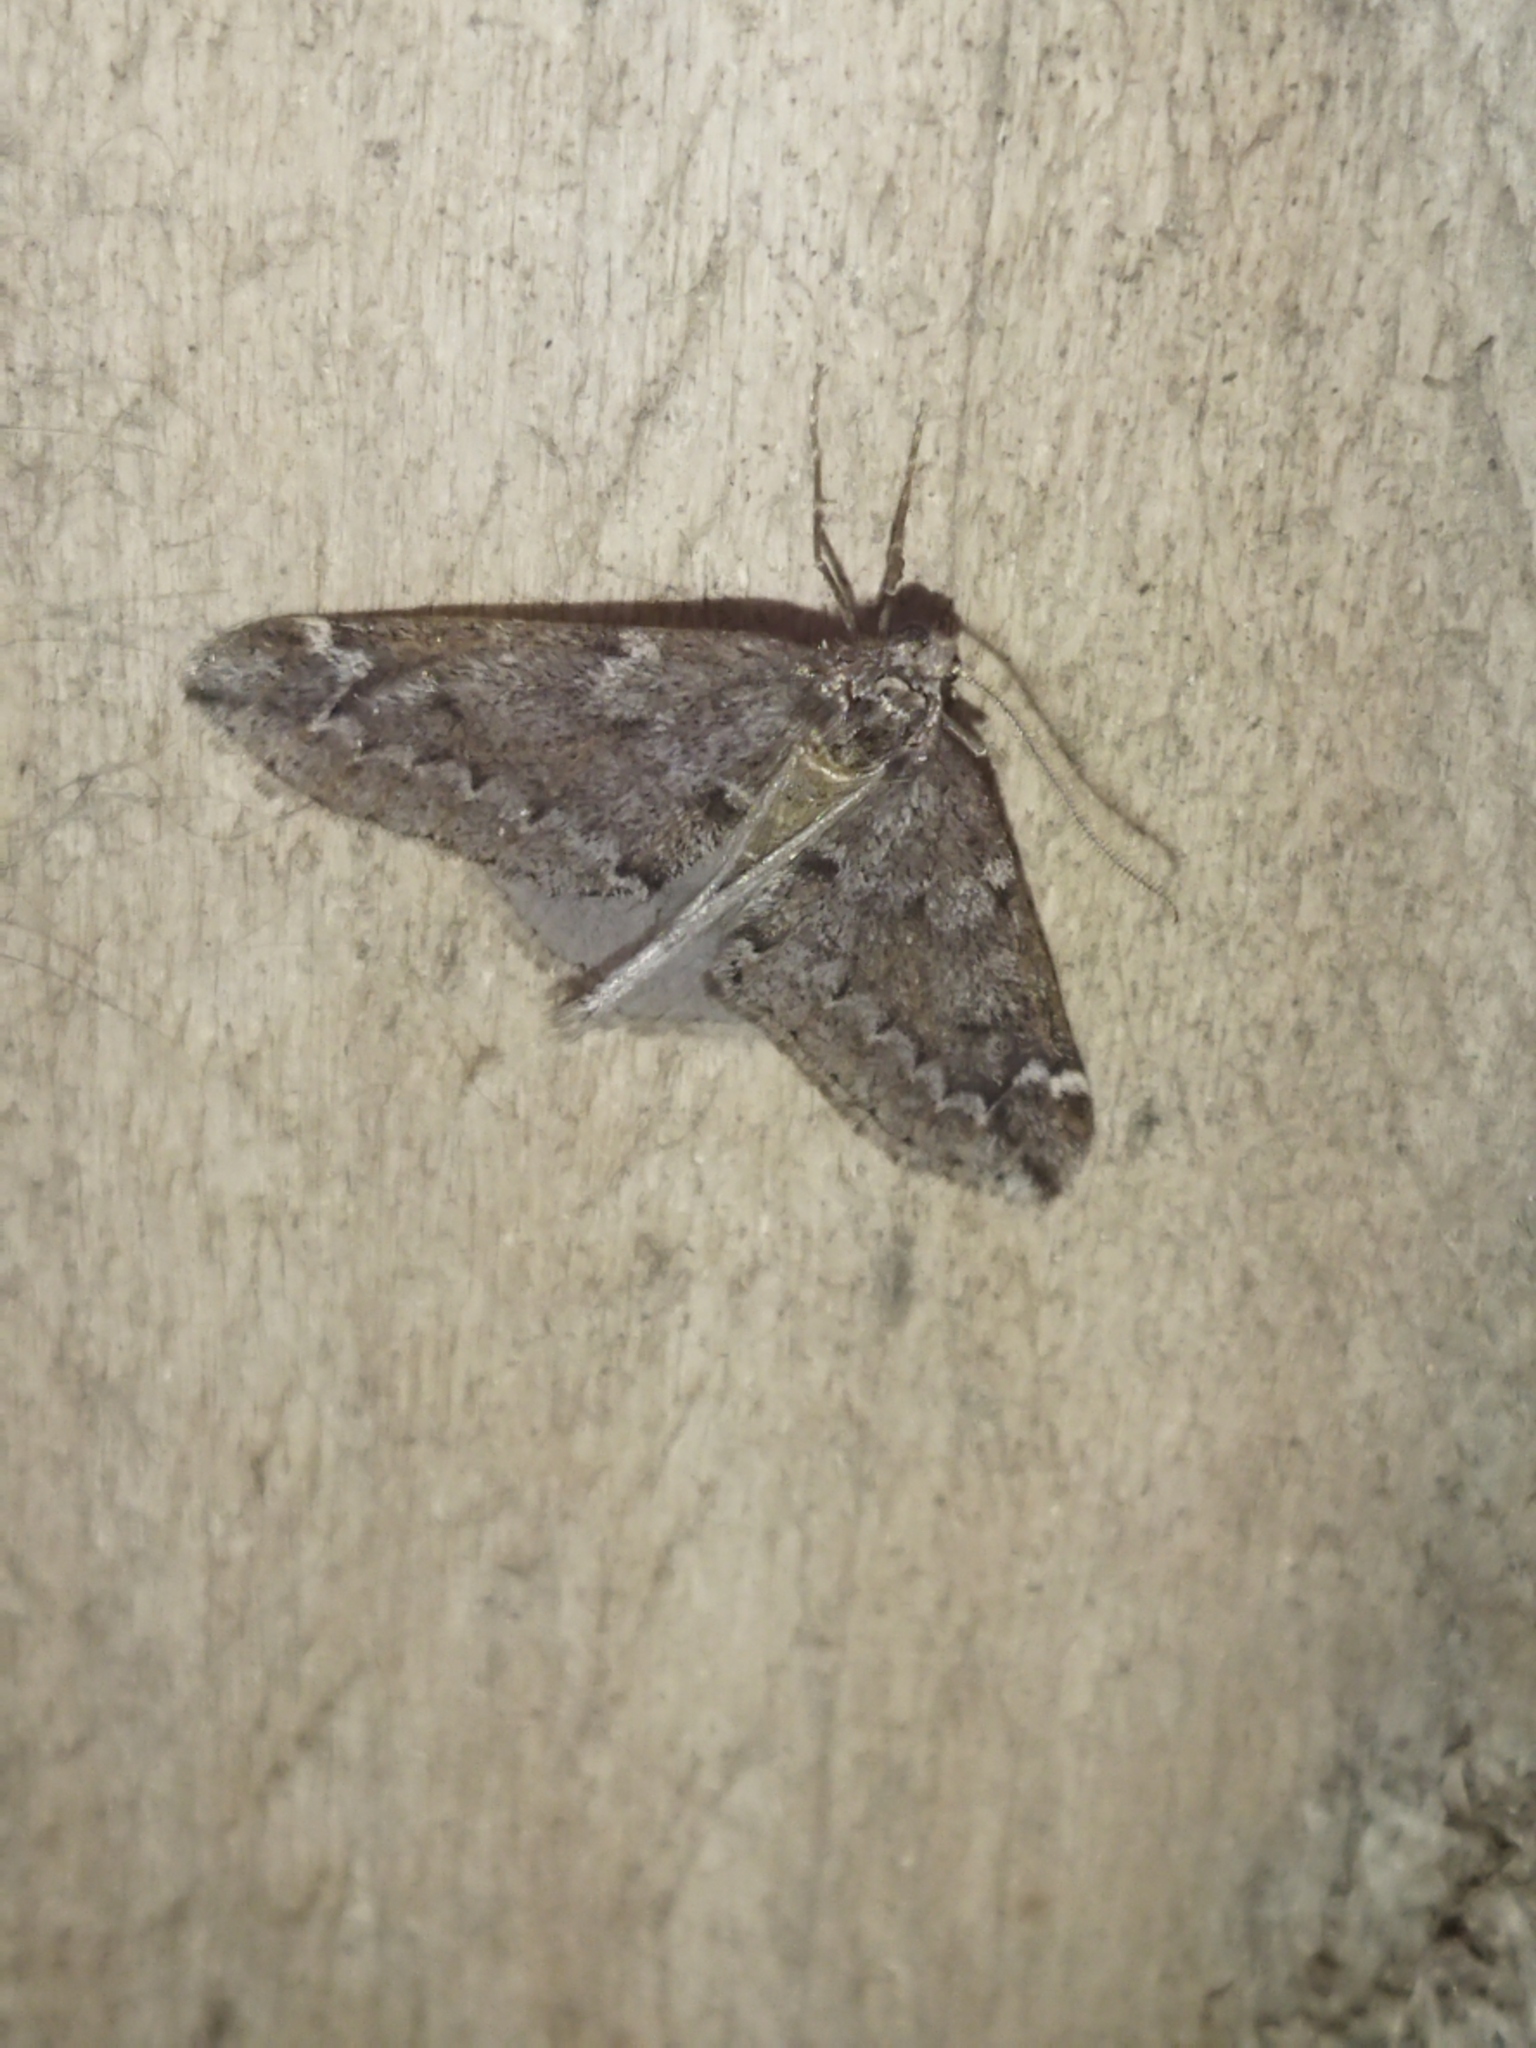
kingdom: Animalia
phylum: Arthropoda
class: Insecta
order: Lepidoptera
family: Geometridae
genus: Alsophila
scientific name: Alsophila aescularia
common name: March moth
